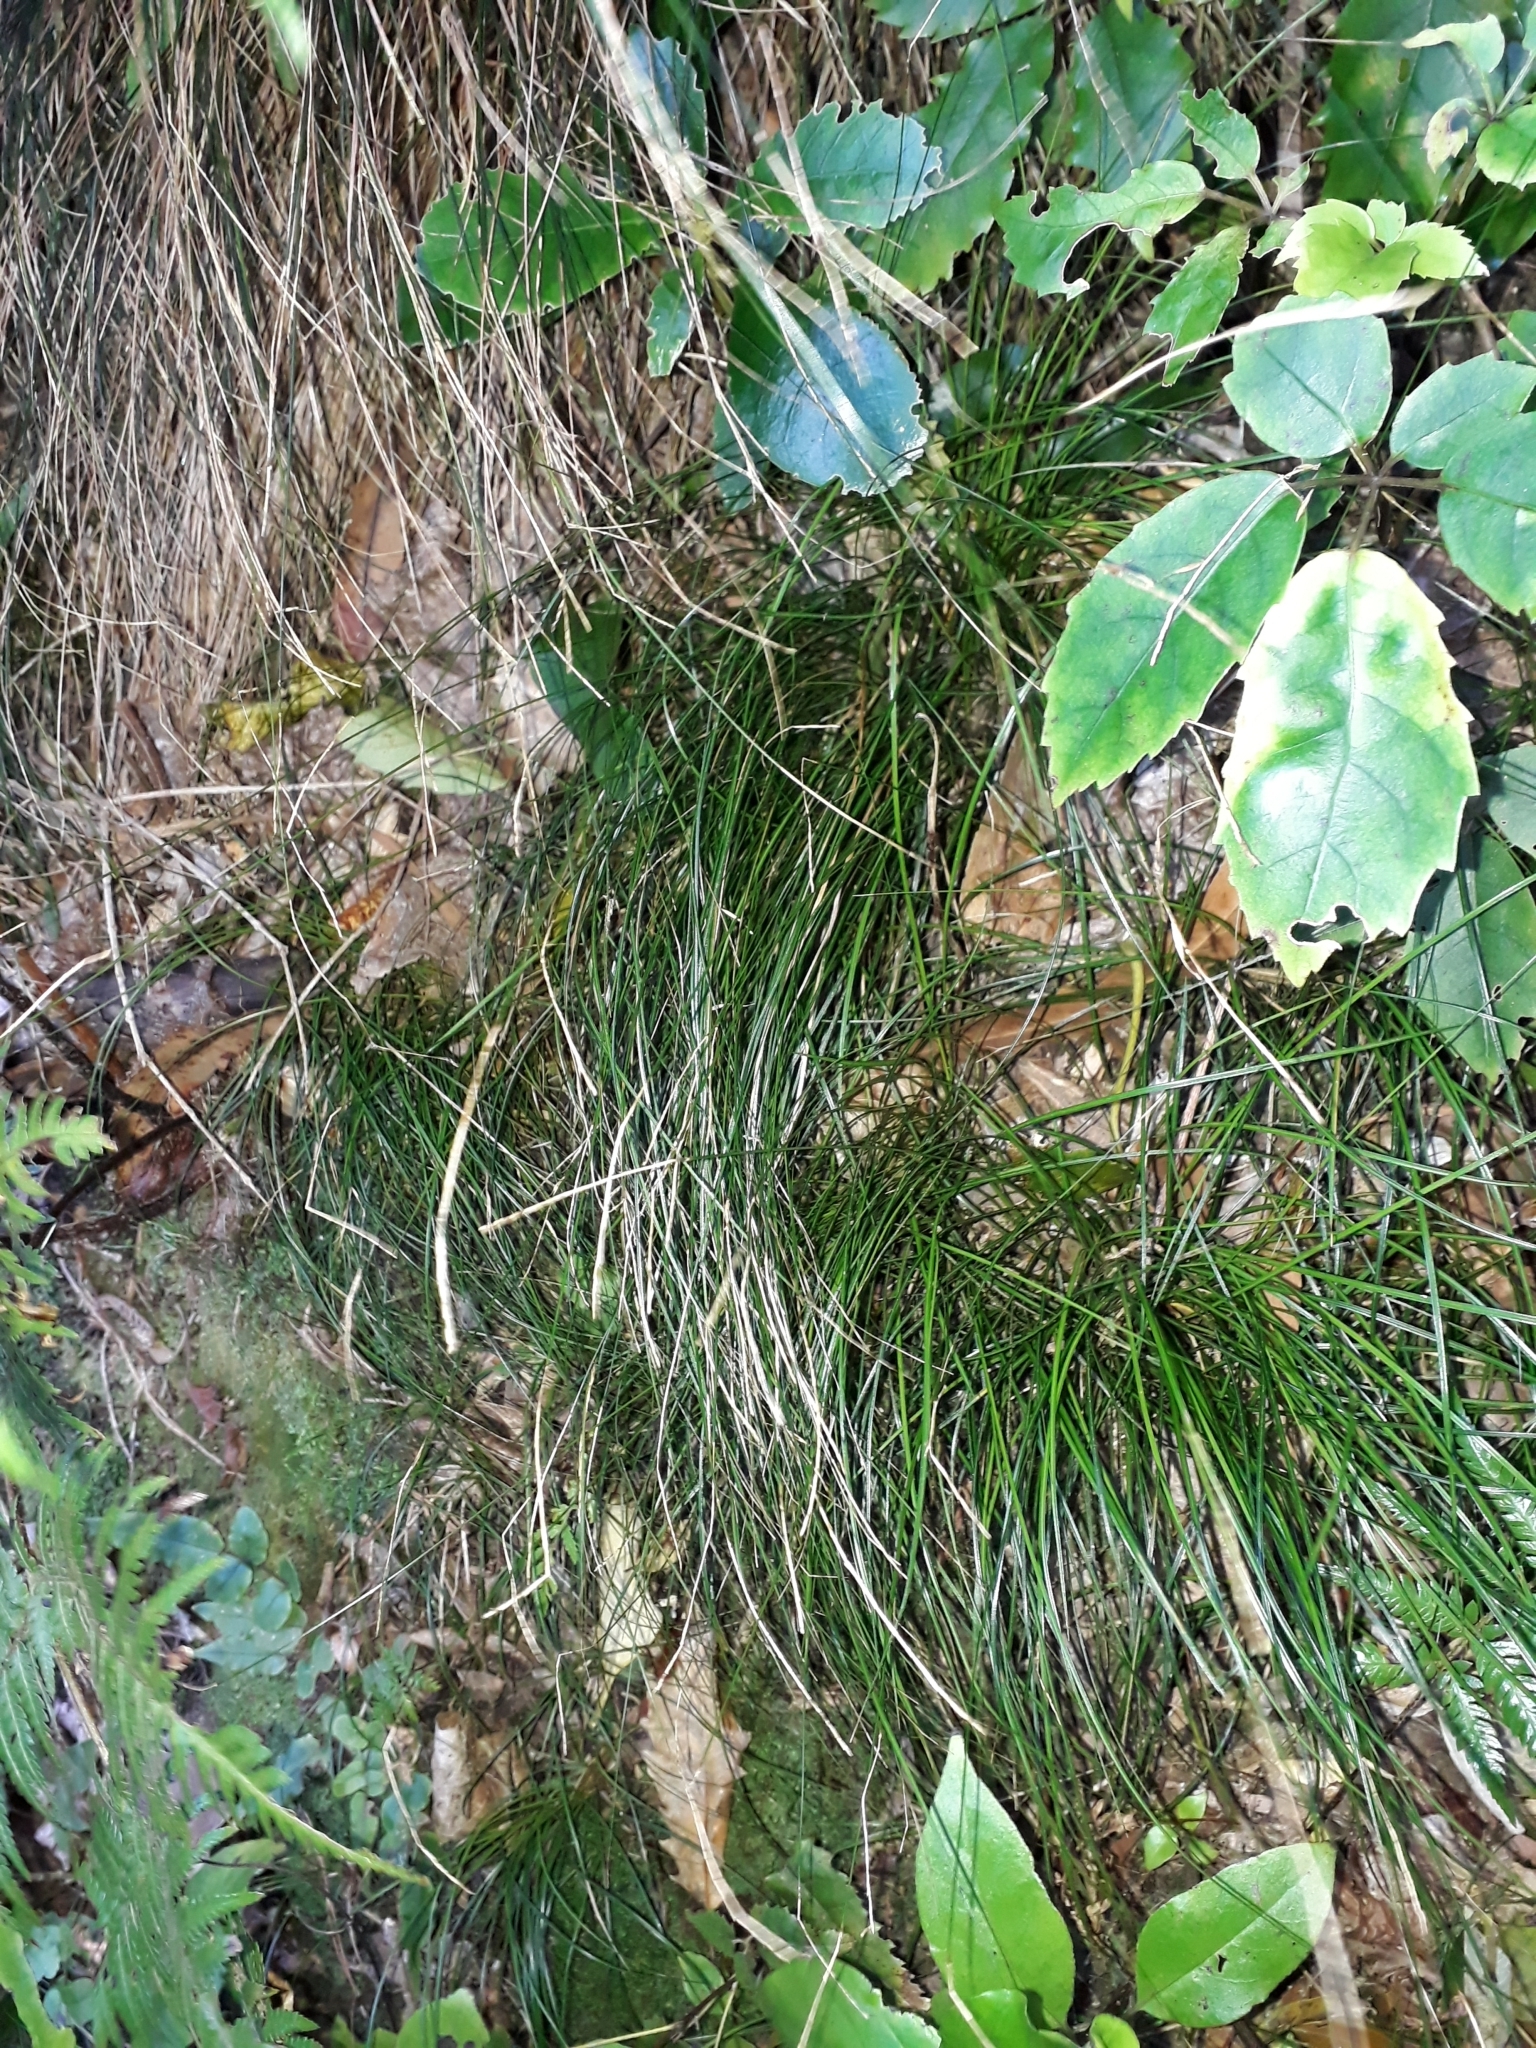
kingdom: Plantae
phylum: Tracheophyta
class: Liliopsida
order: Poales
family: Cyperaceae
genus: Carex
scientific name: Carex banksiana
